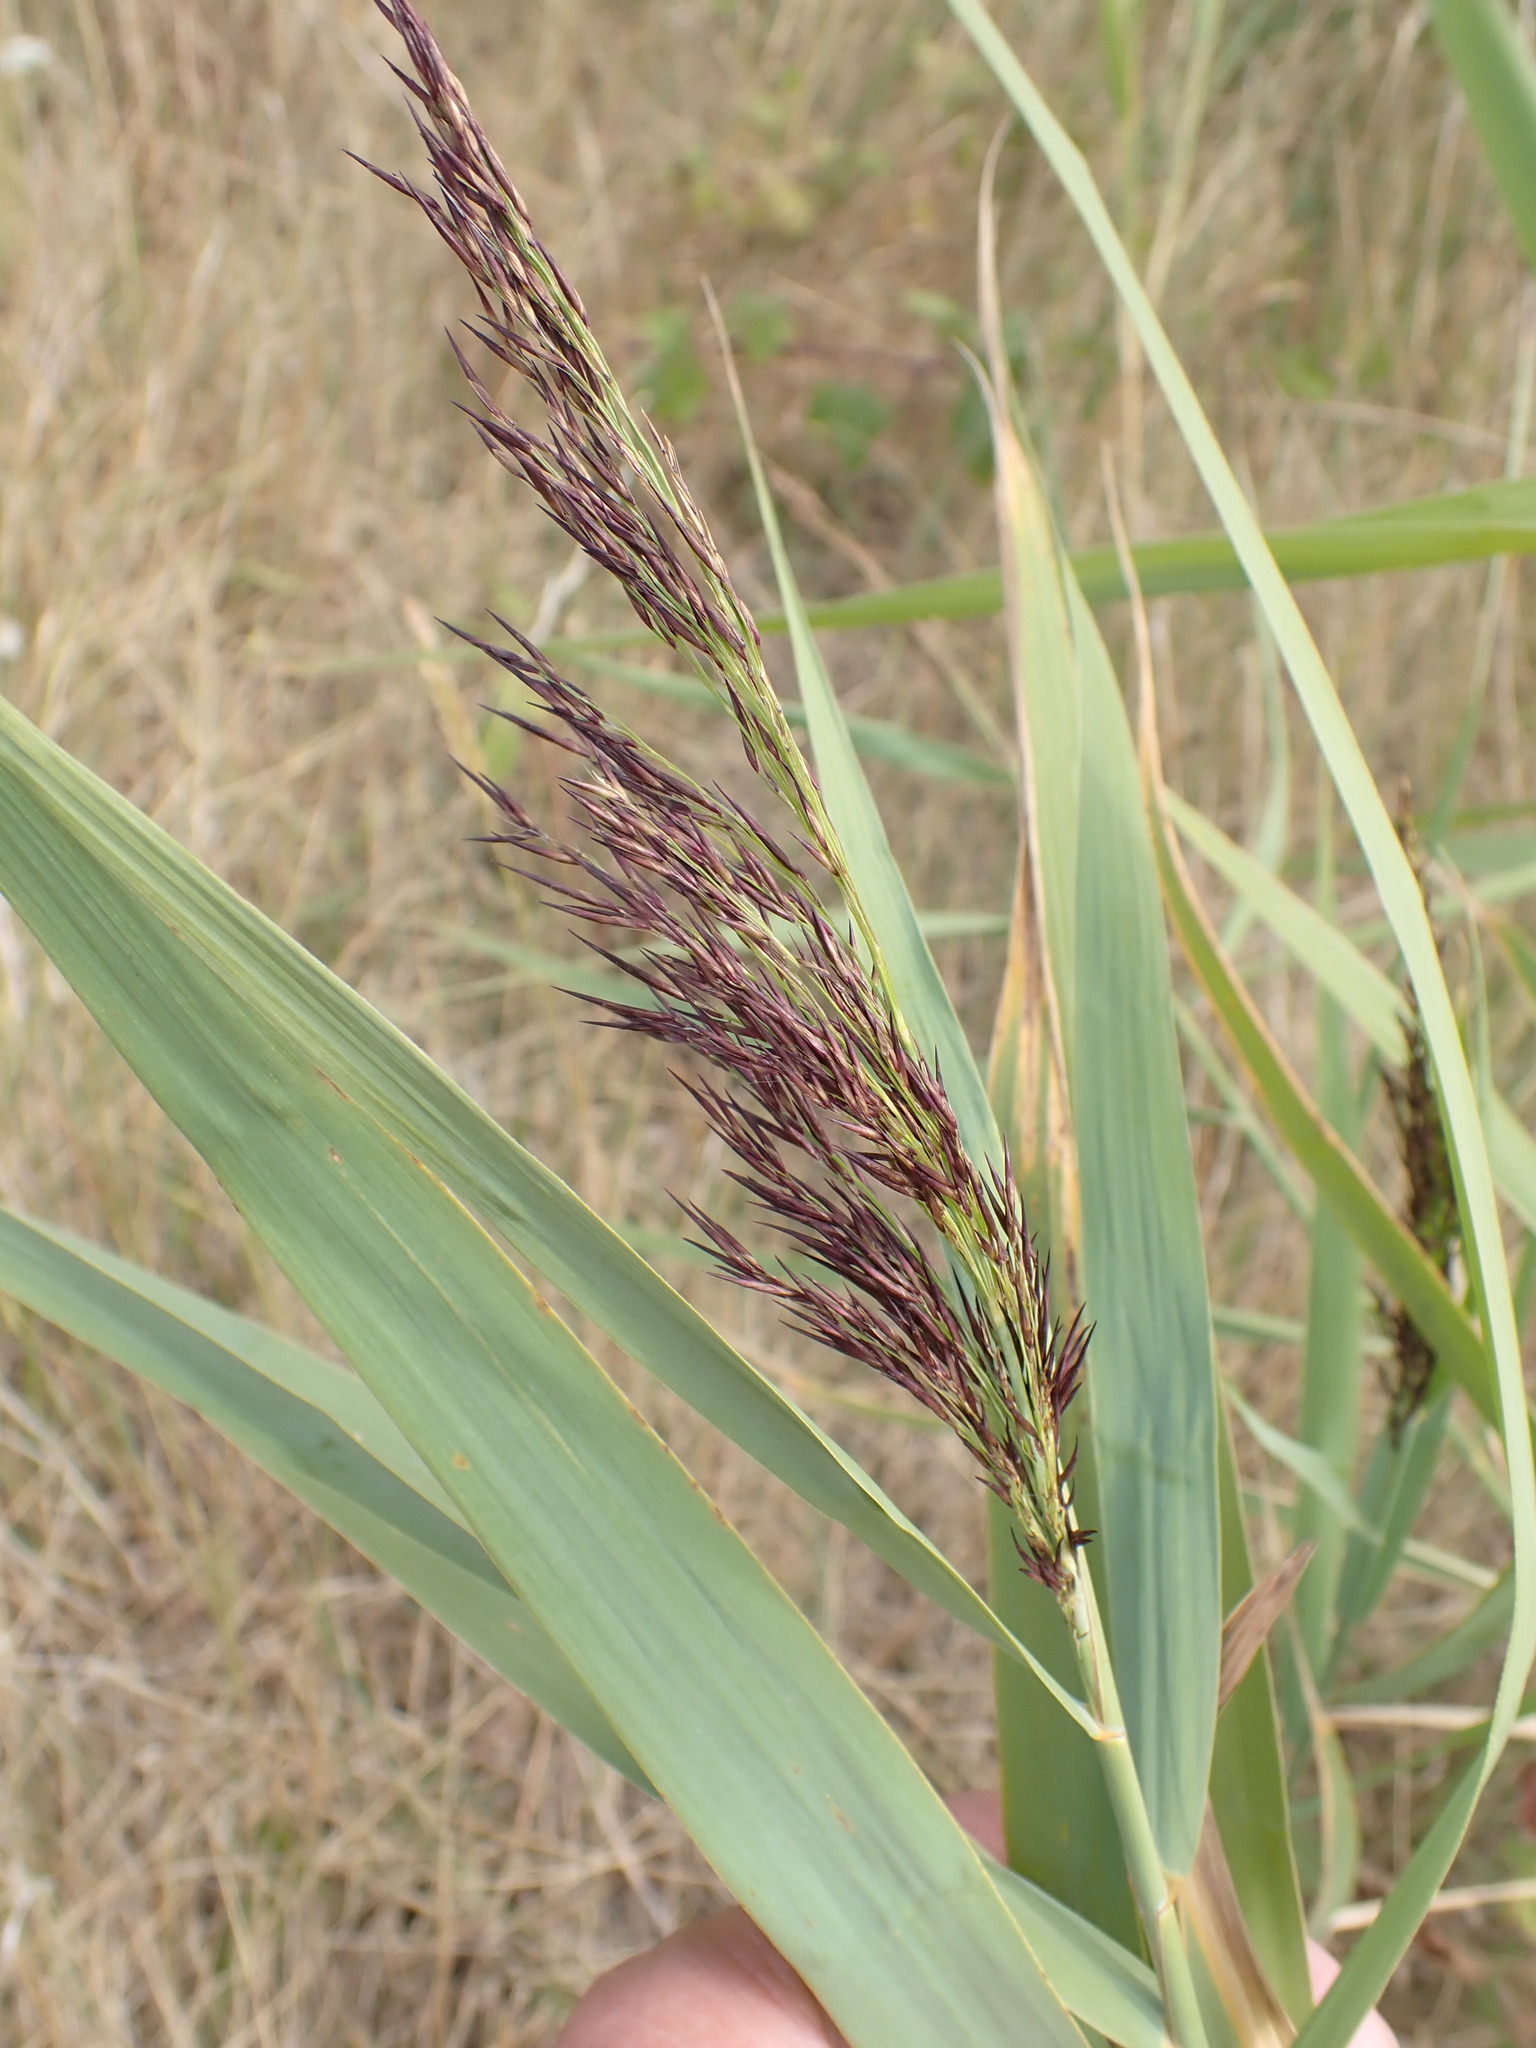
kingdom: Plantae
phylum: Tracheophyta
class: Liliopsida
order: Poales
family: Poaceae
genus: Phragmites
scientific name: Phragmites australis
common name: Common reed
